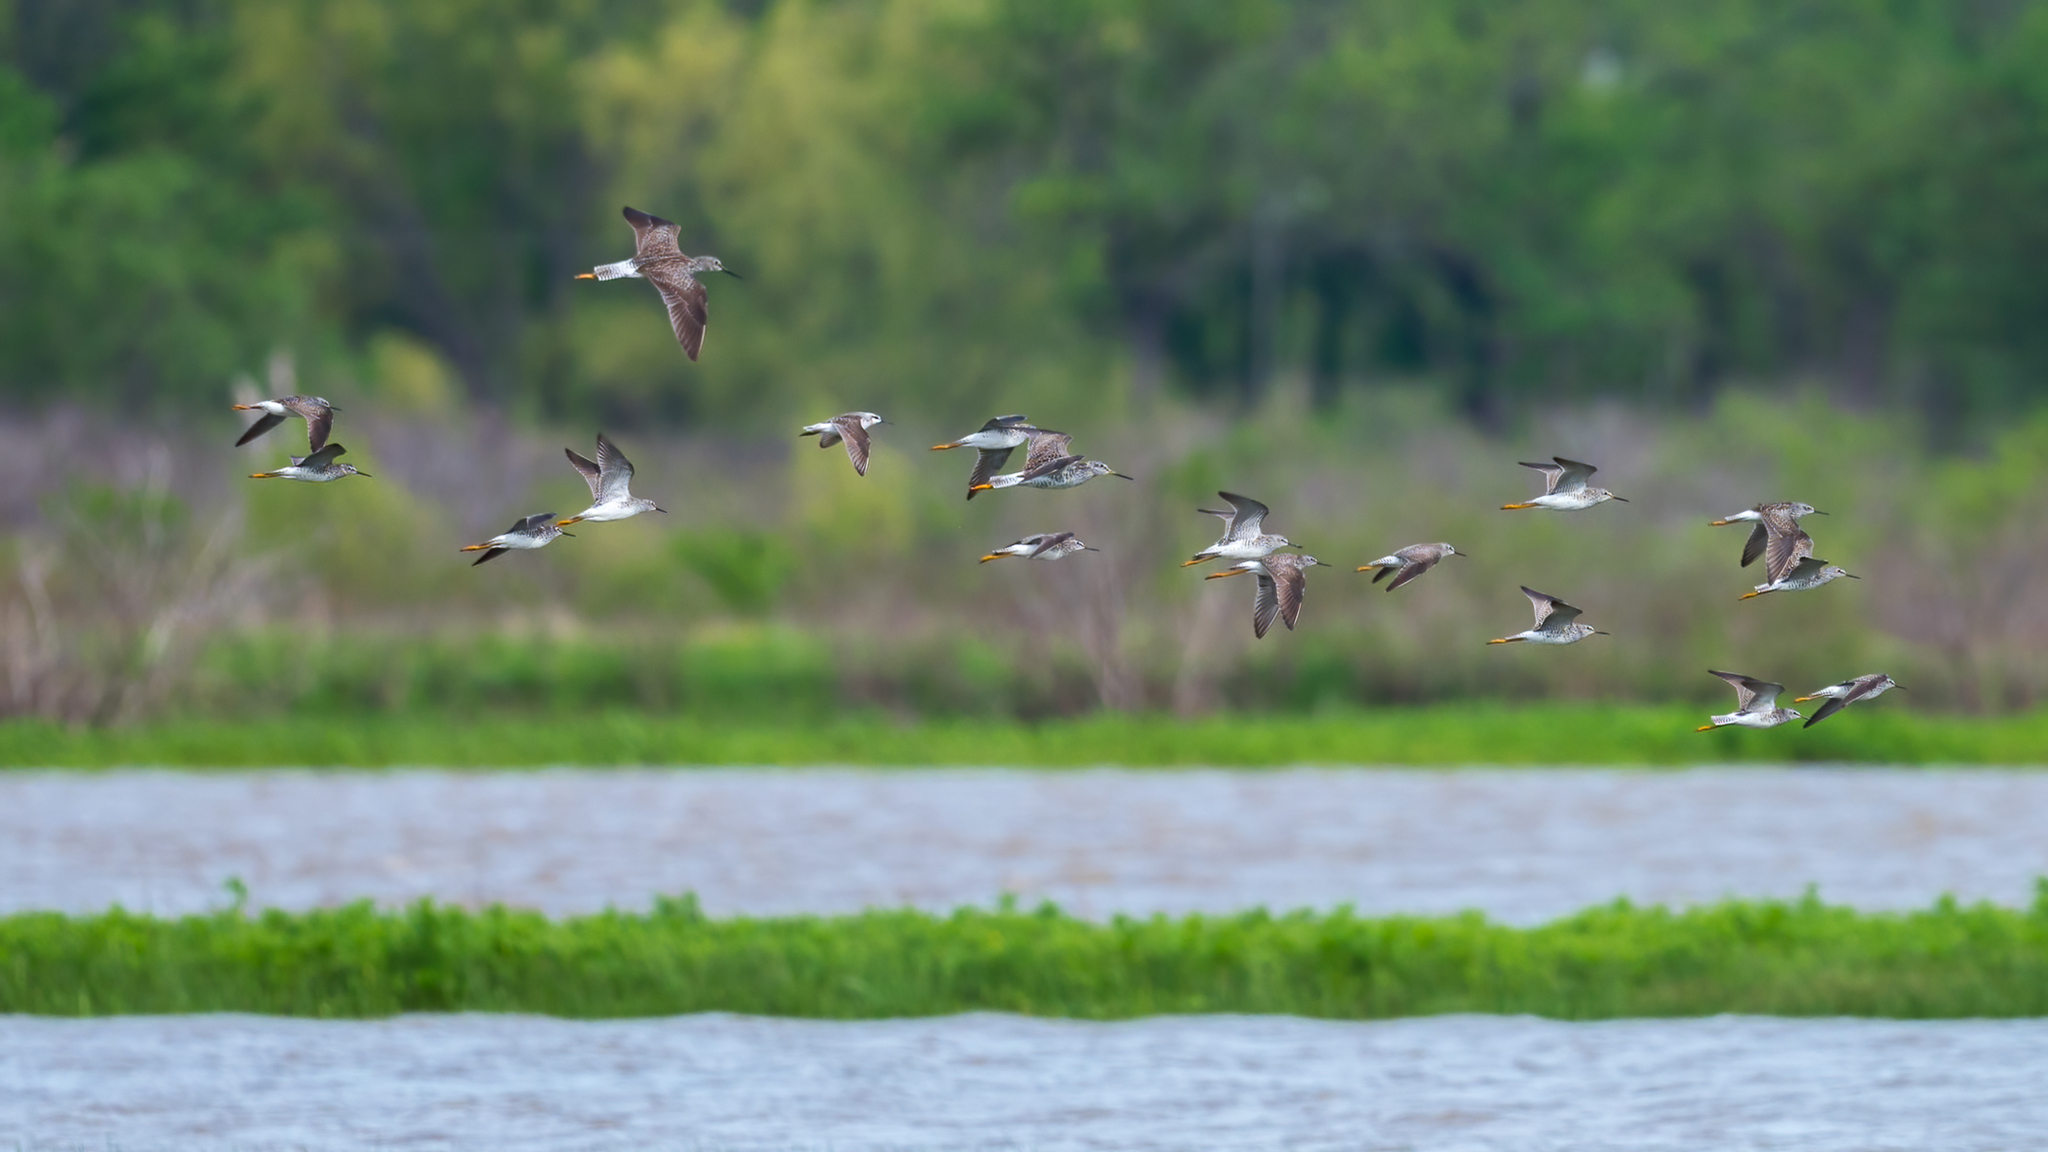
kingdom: Animalia
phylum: Chordata
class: Aves
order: Charadriiformes
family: Scolopacidae
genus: Calidris
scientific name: Calidris melanotos
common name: Pectoral sandpiper
